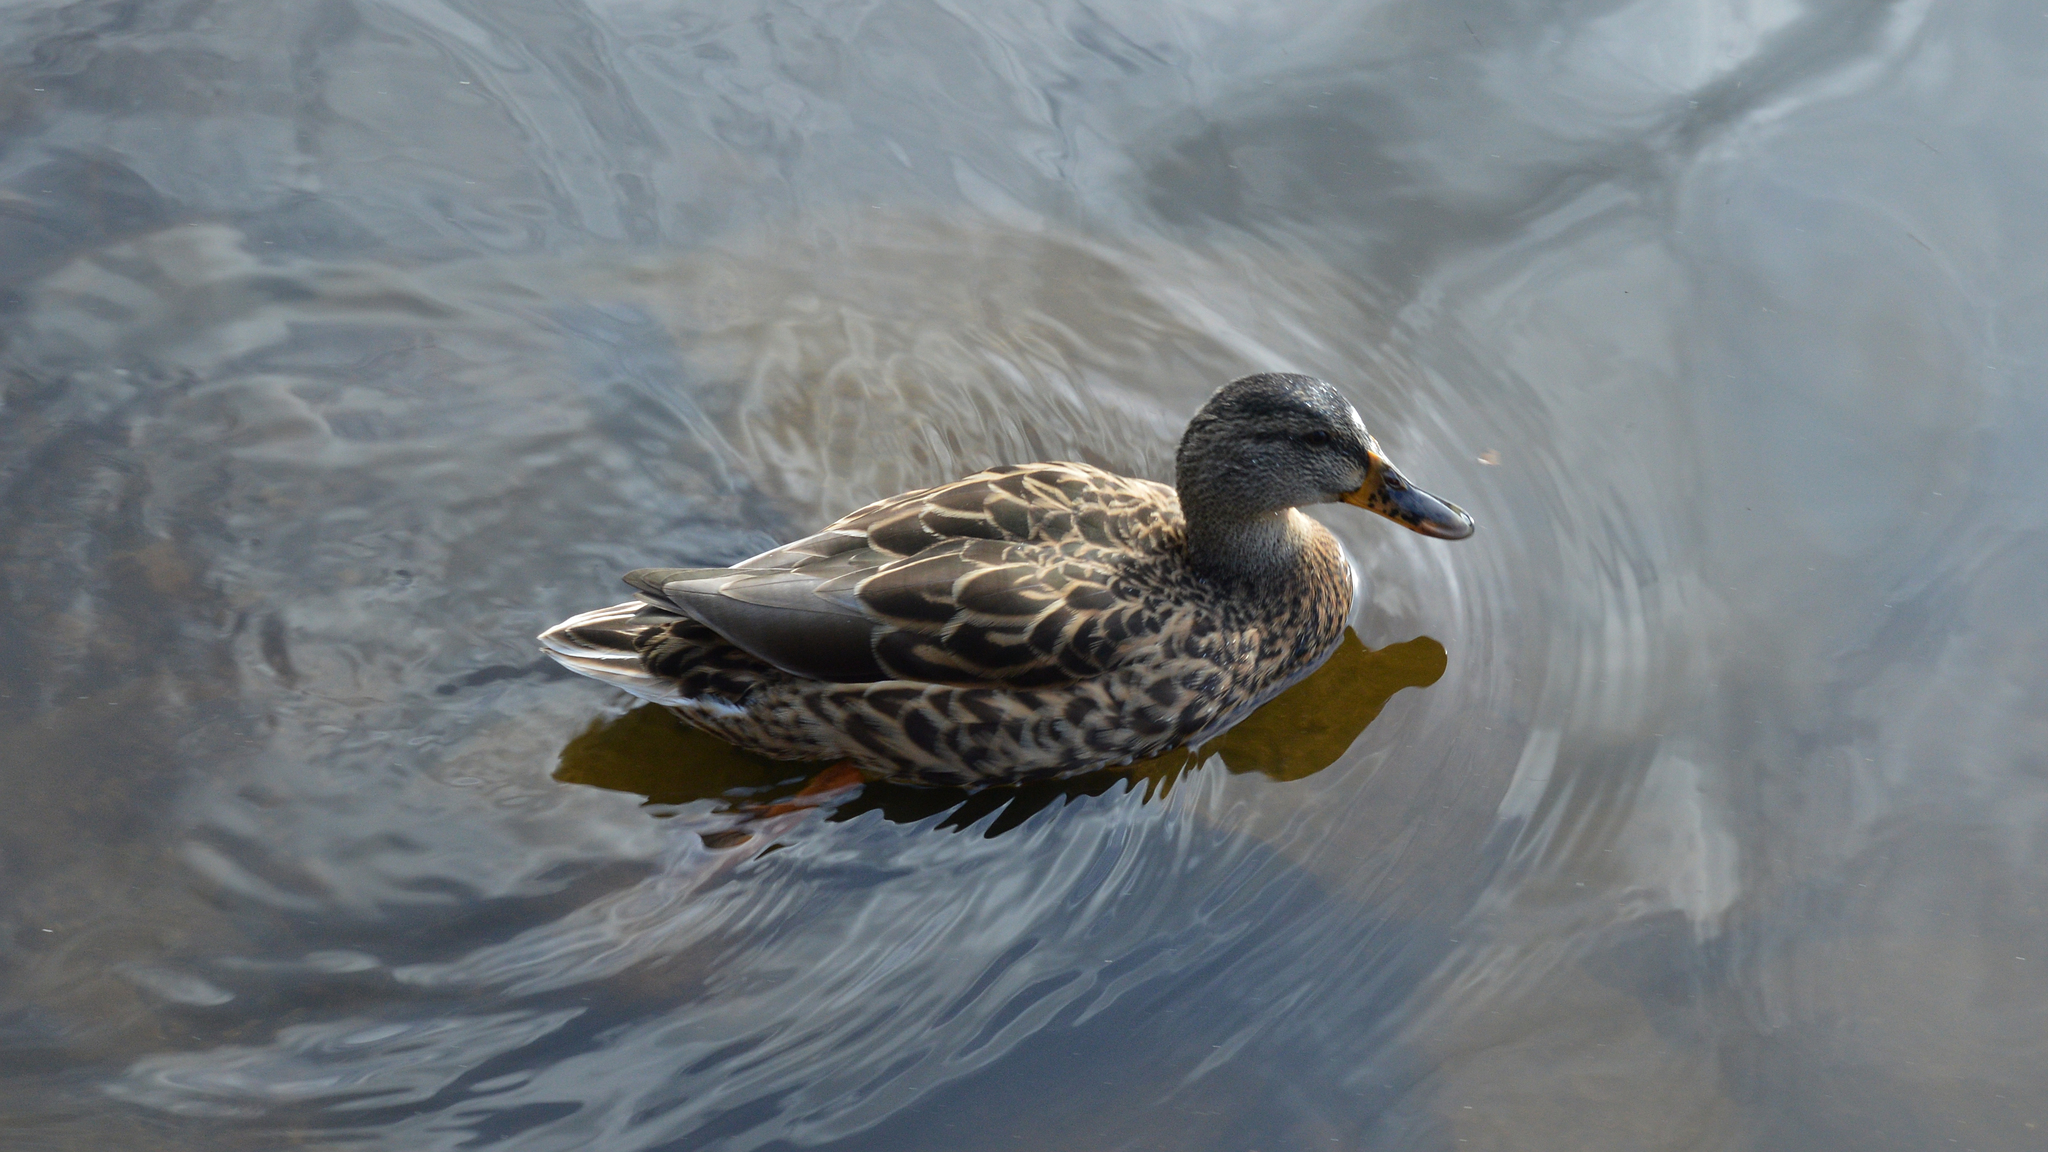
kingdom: Animalia
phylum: Chordata
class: Aves
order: Anseriformes
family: Anatidae
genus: Anas
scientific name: Anas platyrhynchos
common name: Mallard
